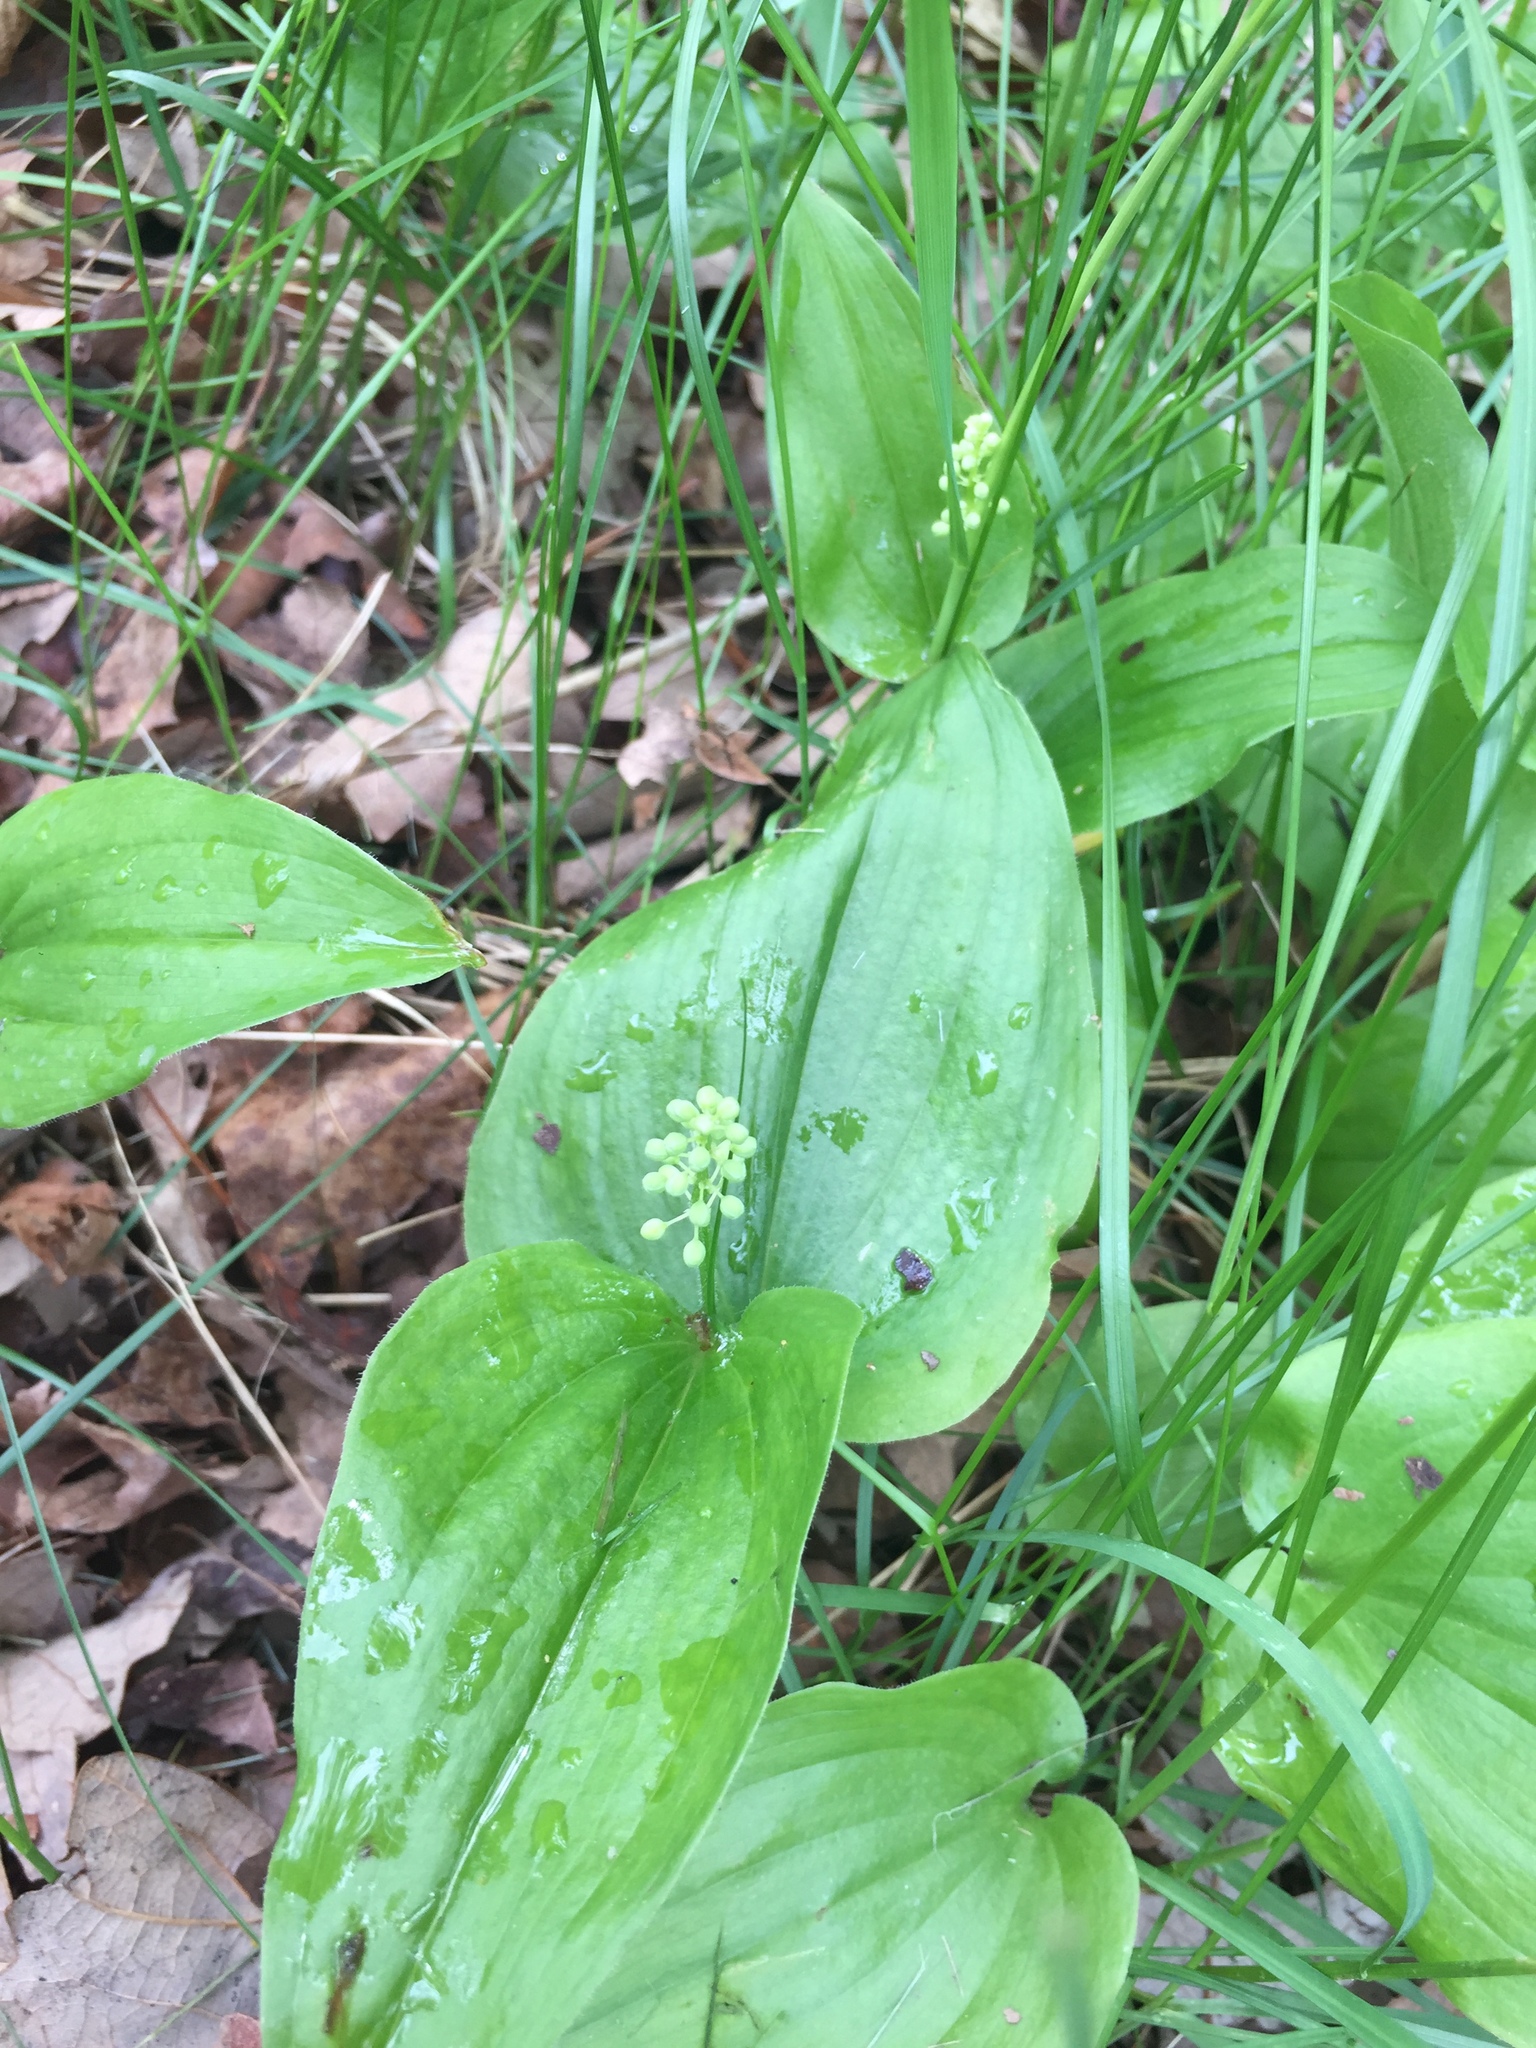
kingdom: Plantae
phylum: Tracheophyta
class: Liliopsida
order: Asparagales
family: Asparagaceae
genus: Maianthemum
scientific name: Maianthemum canadense
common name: False lily-of-the-valley
